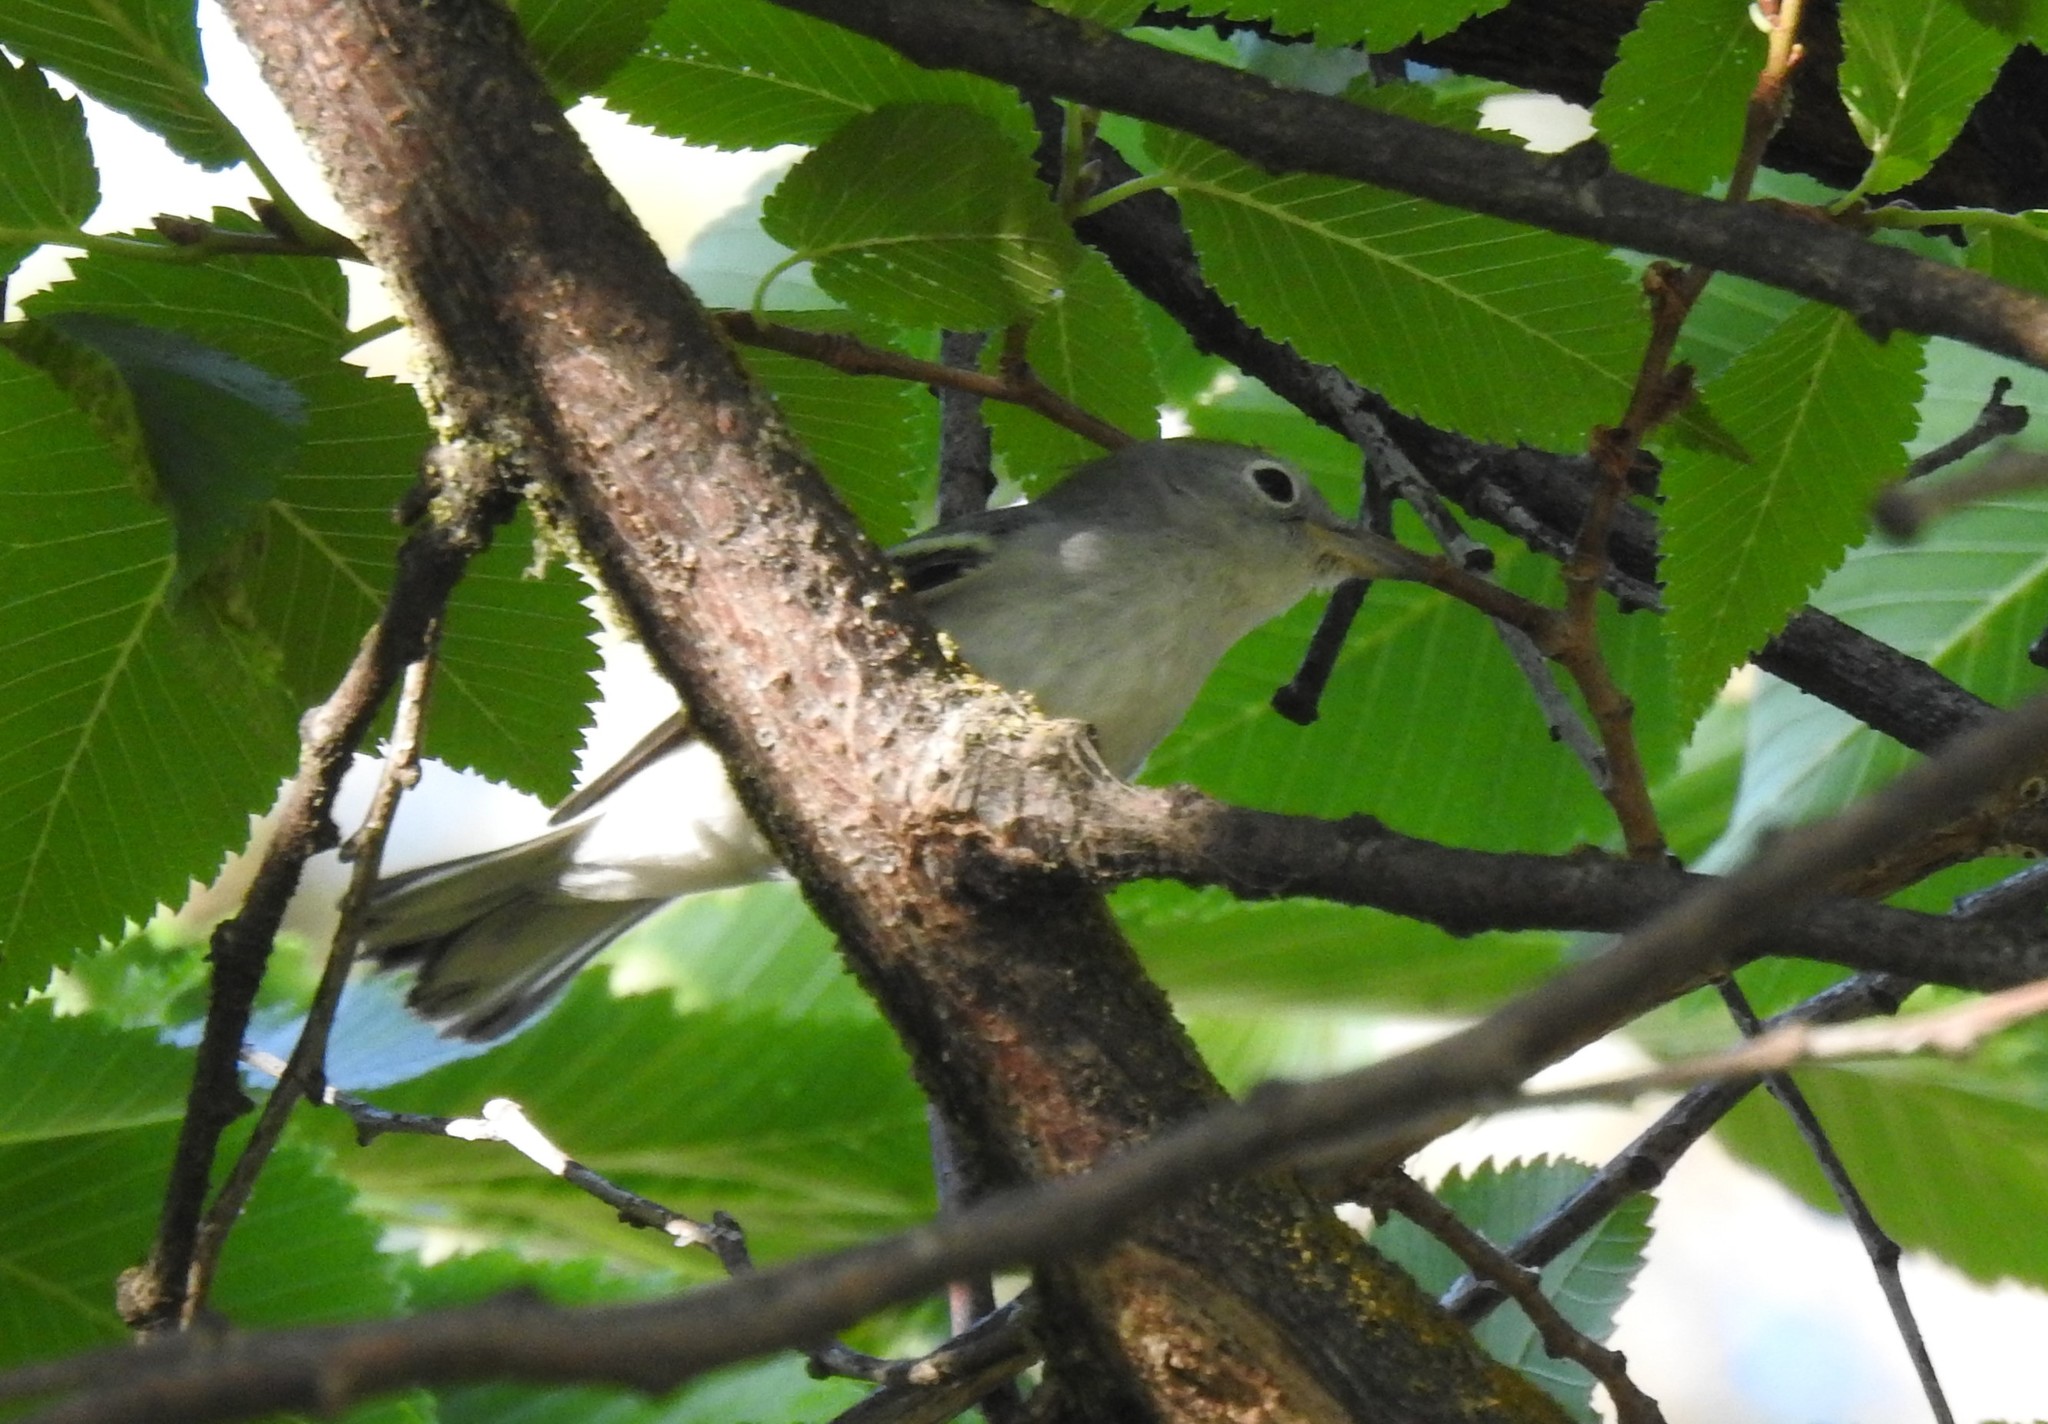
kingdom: Animalia
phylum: Chordata
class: Aves
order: Passeriformes
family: Parulidae
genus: Setophaga
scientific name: Setophaga pensylvanica
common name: Chestnut-sided warbler
